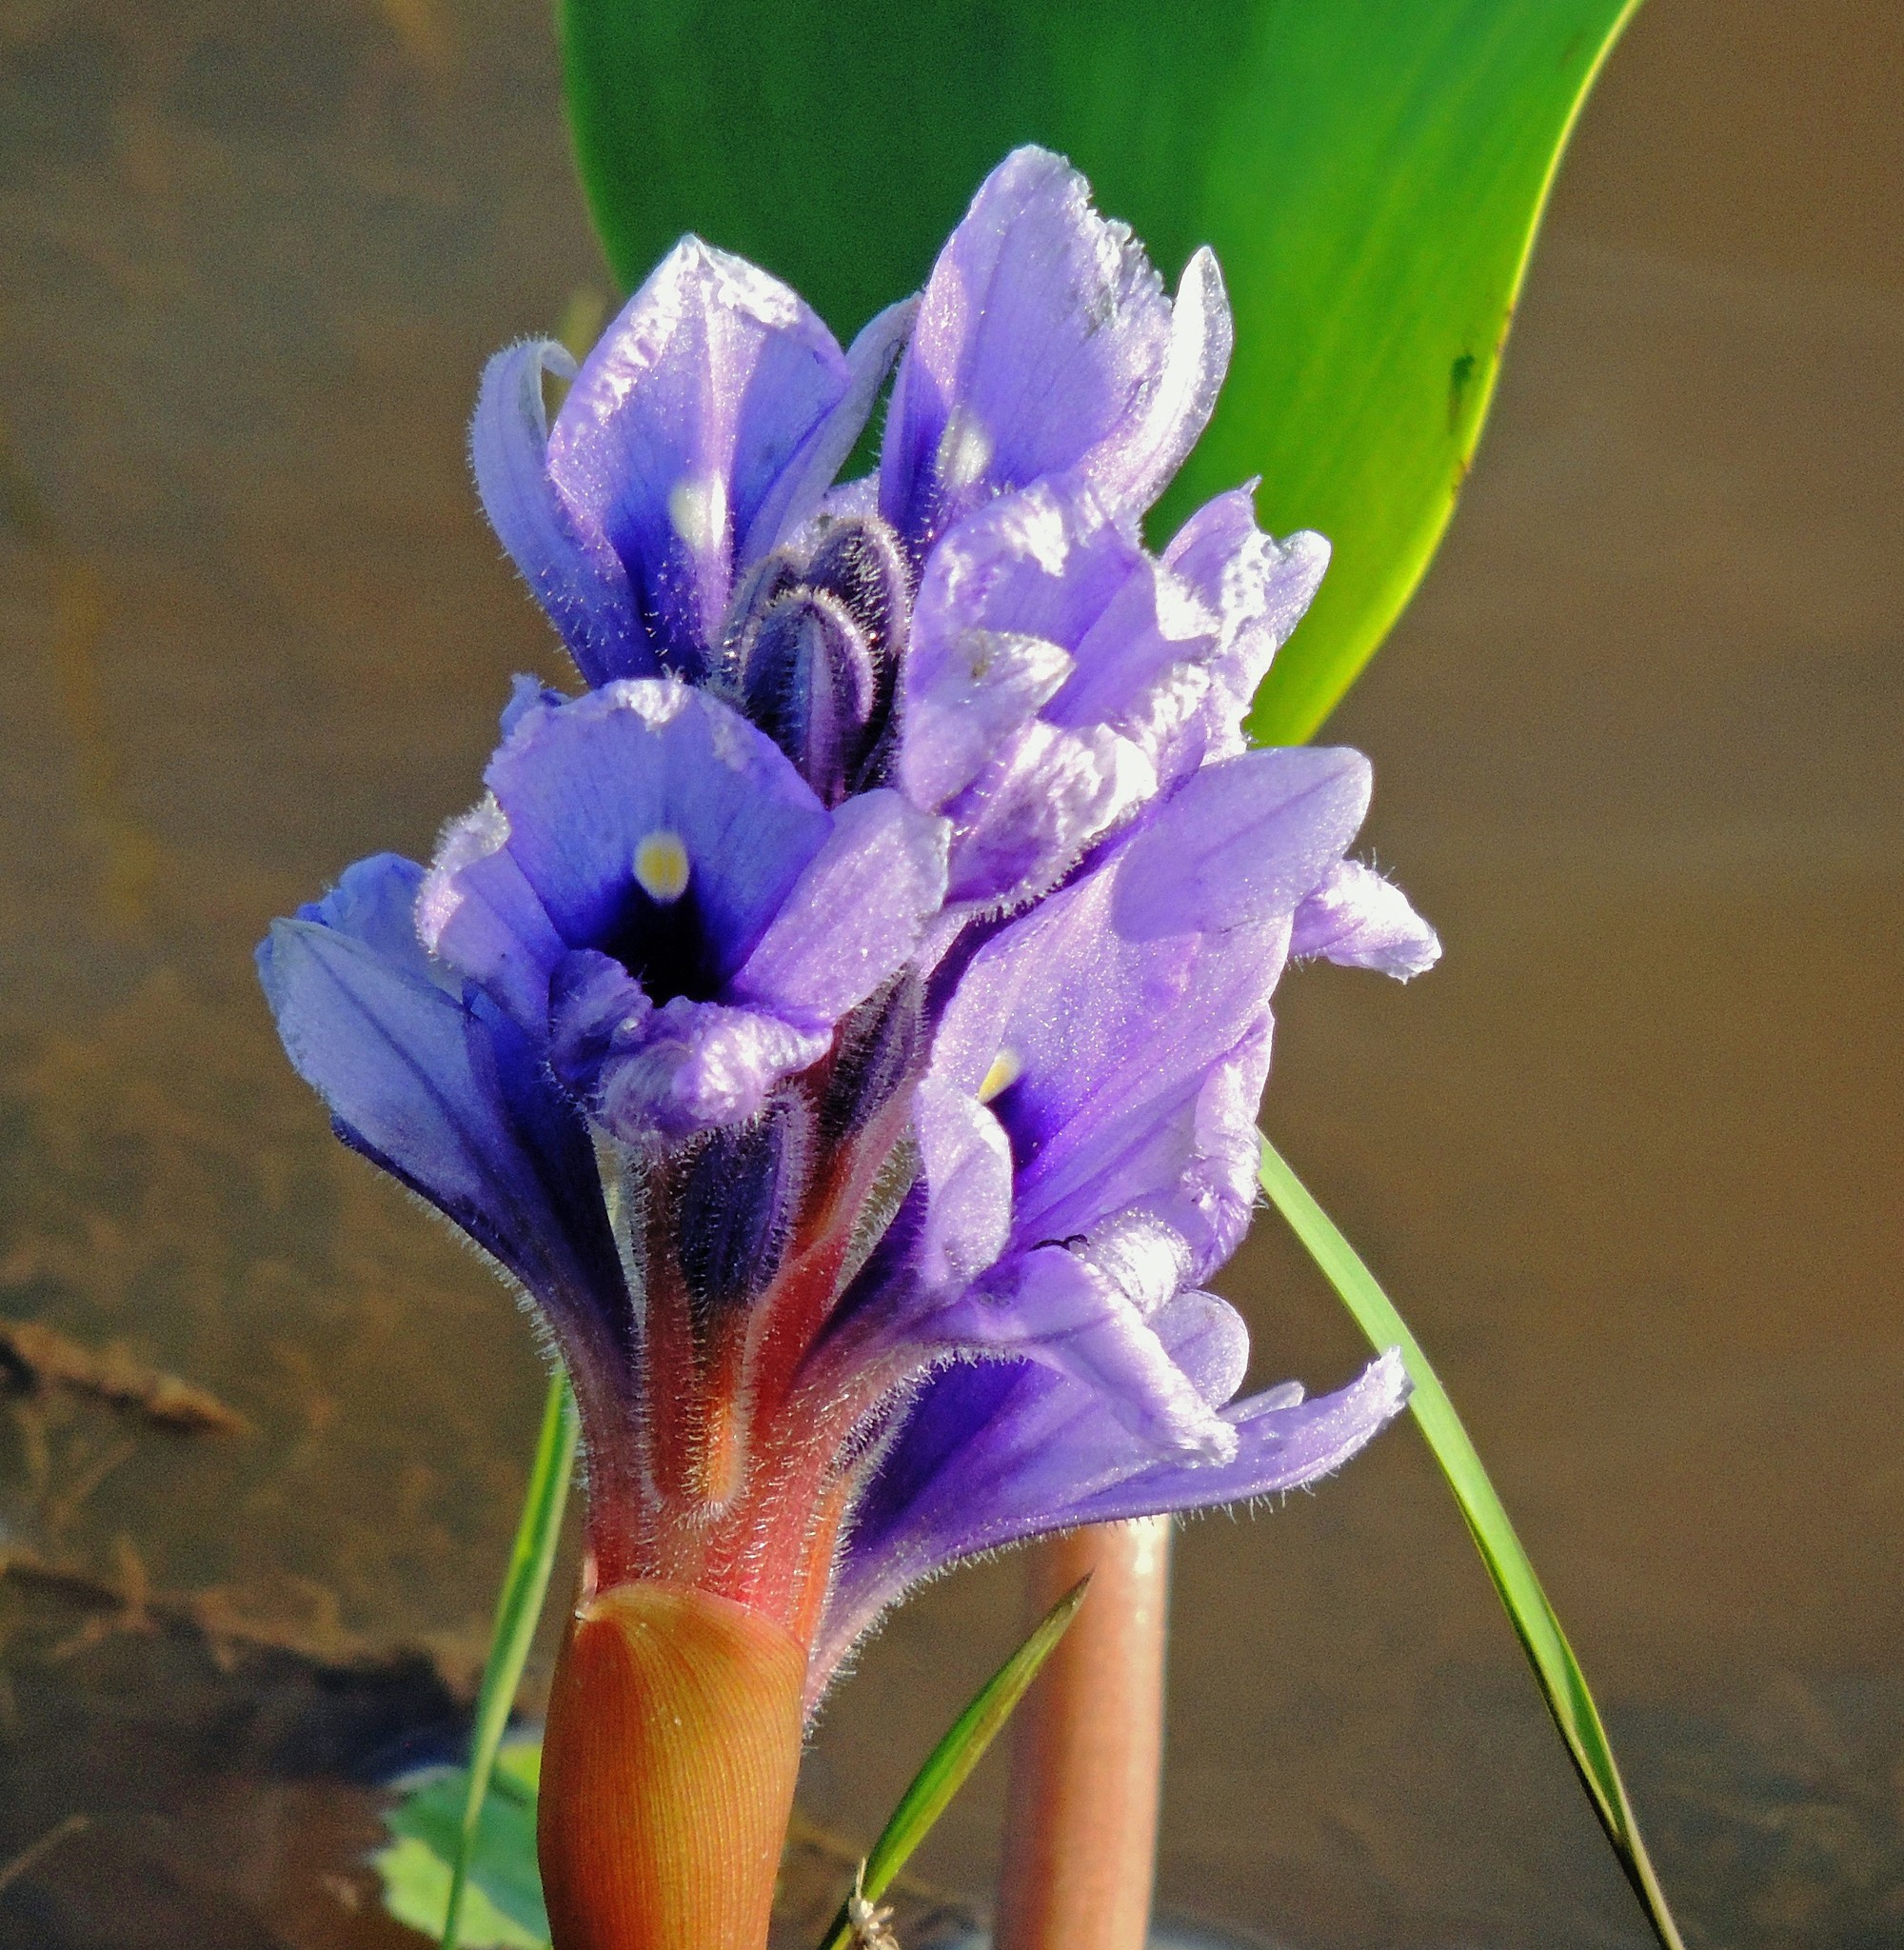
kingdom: Plantae
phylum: Tracheophyta
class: Liliopsida
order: Commelinales
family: Pontederiaceae
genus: Pontederia
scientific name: Pontederia azurea
